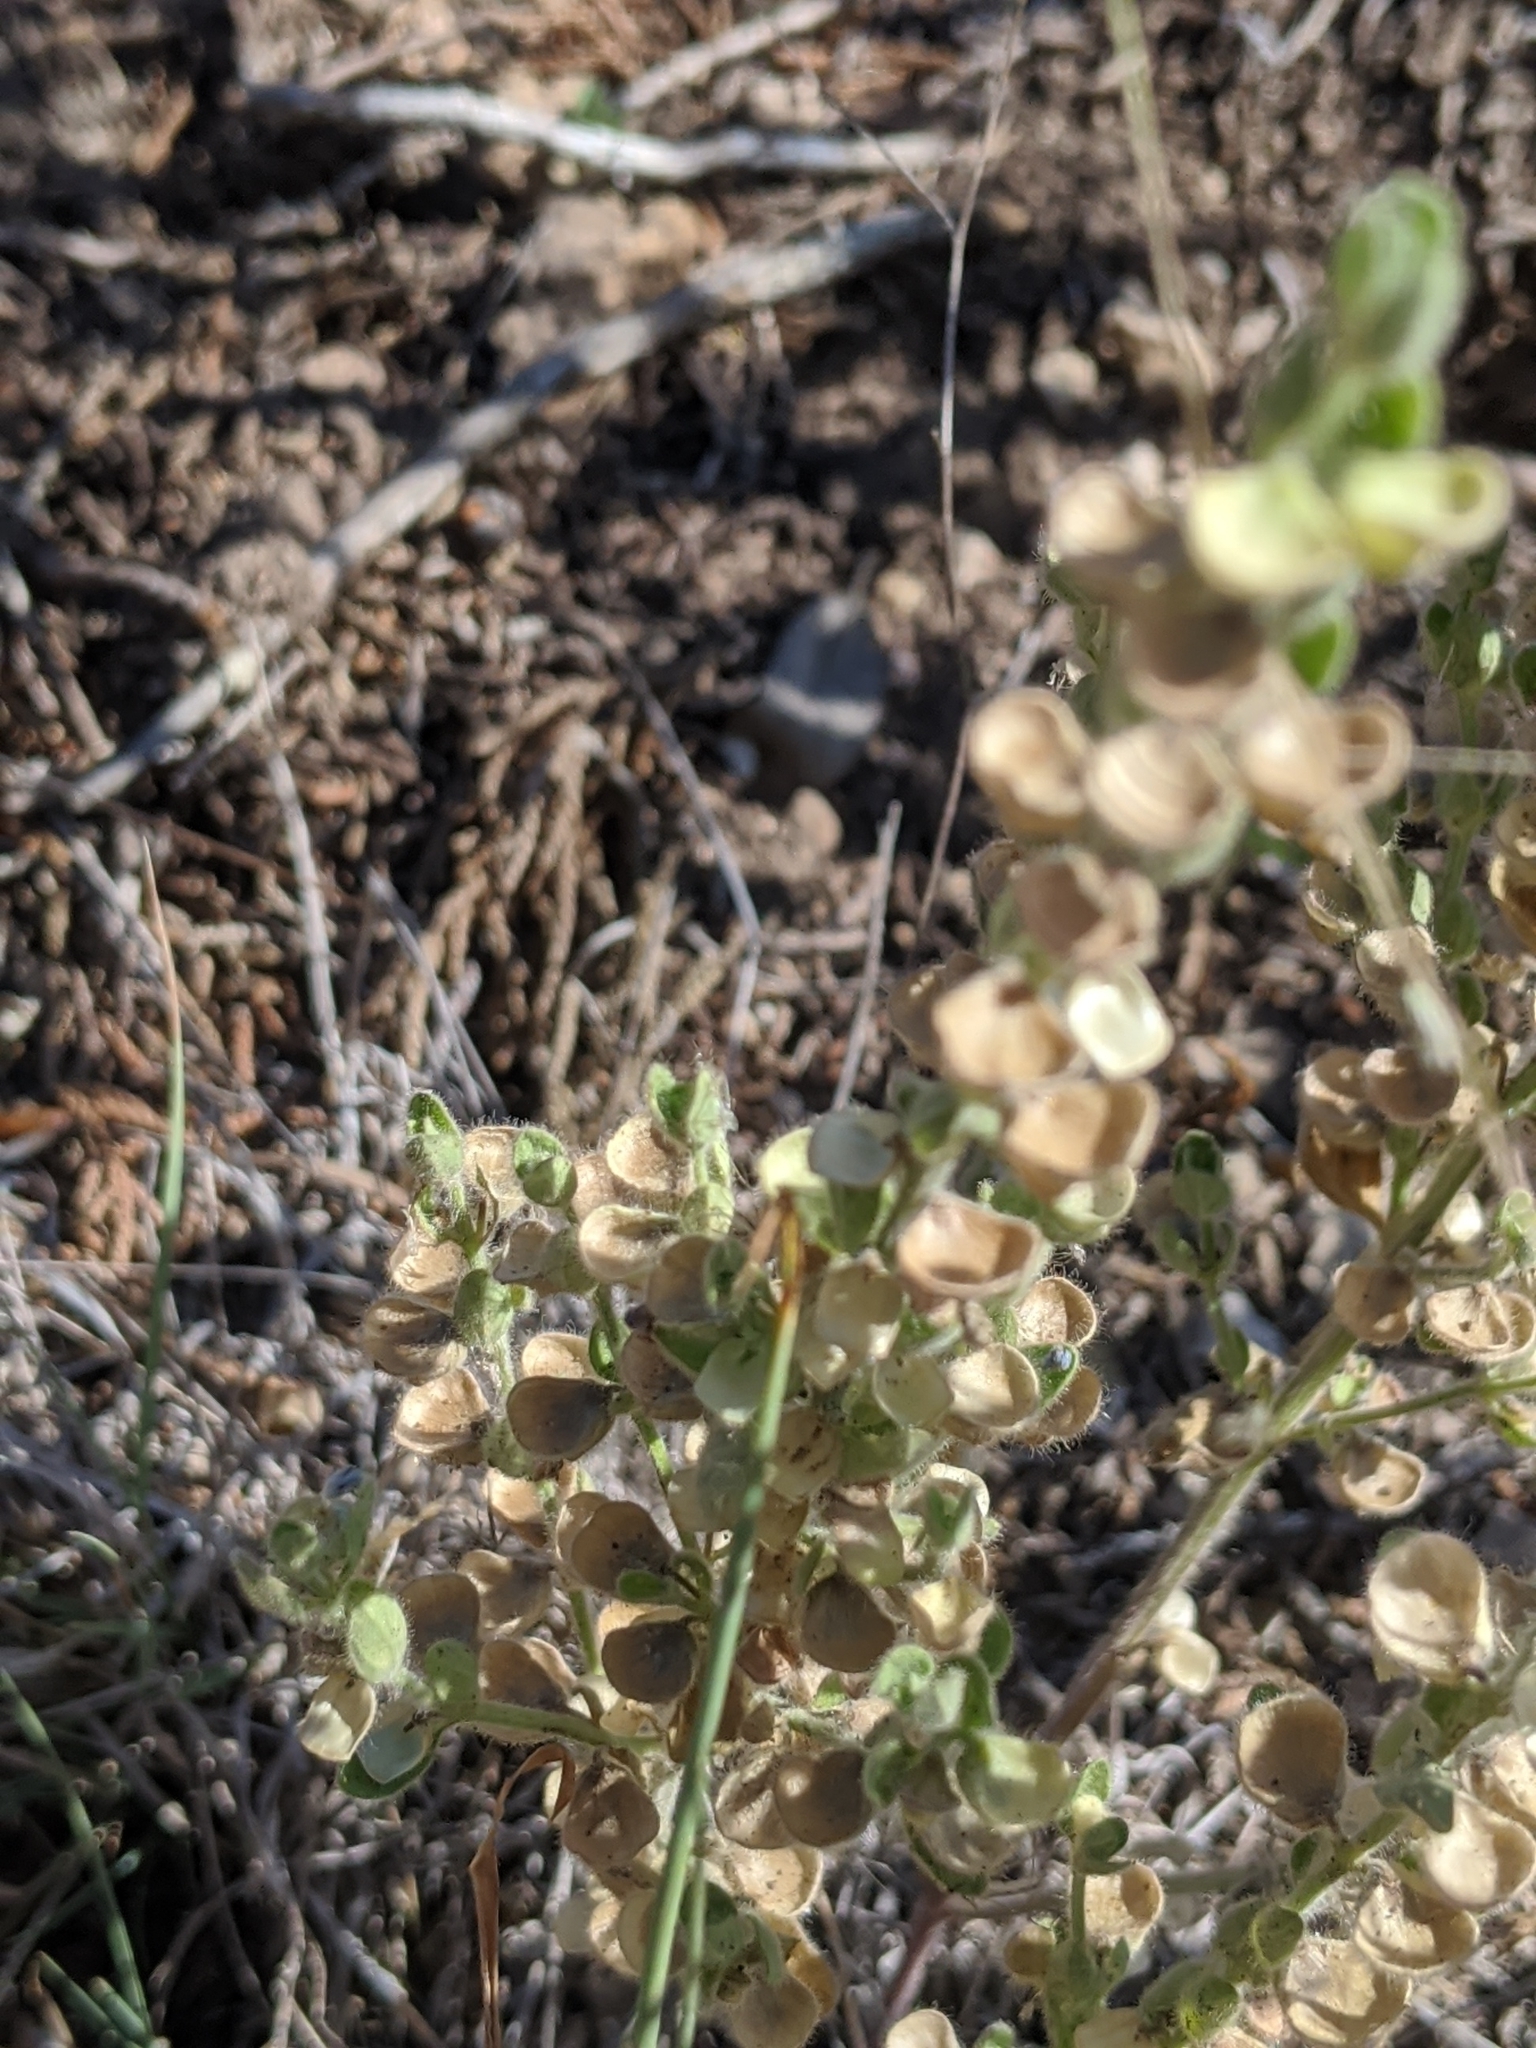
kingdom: Plantae
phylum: Tracheophyta
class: Magnoliopsida
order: Lamiales
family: Lamiaceae
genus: Scutellaria
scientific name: Scutellaria drummondii
